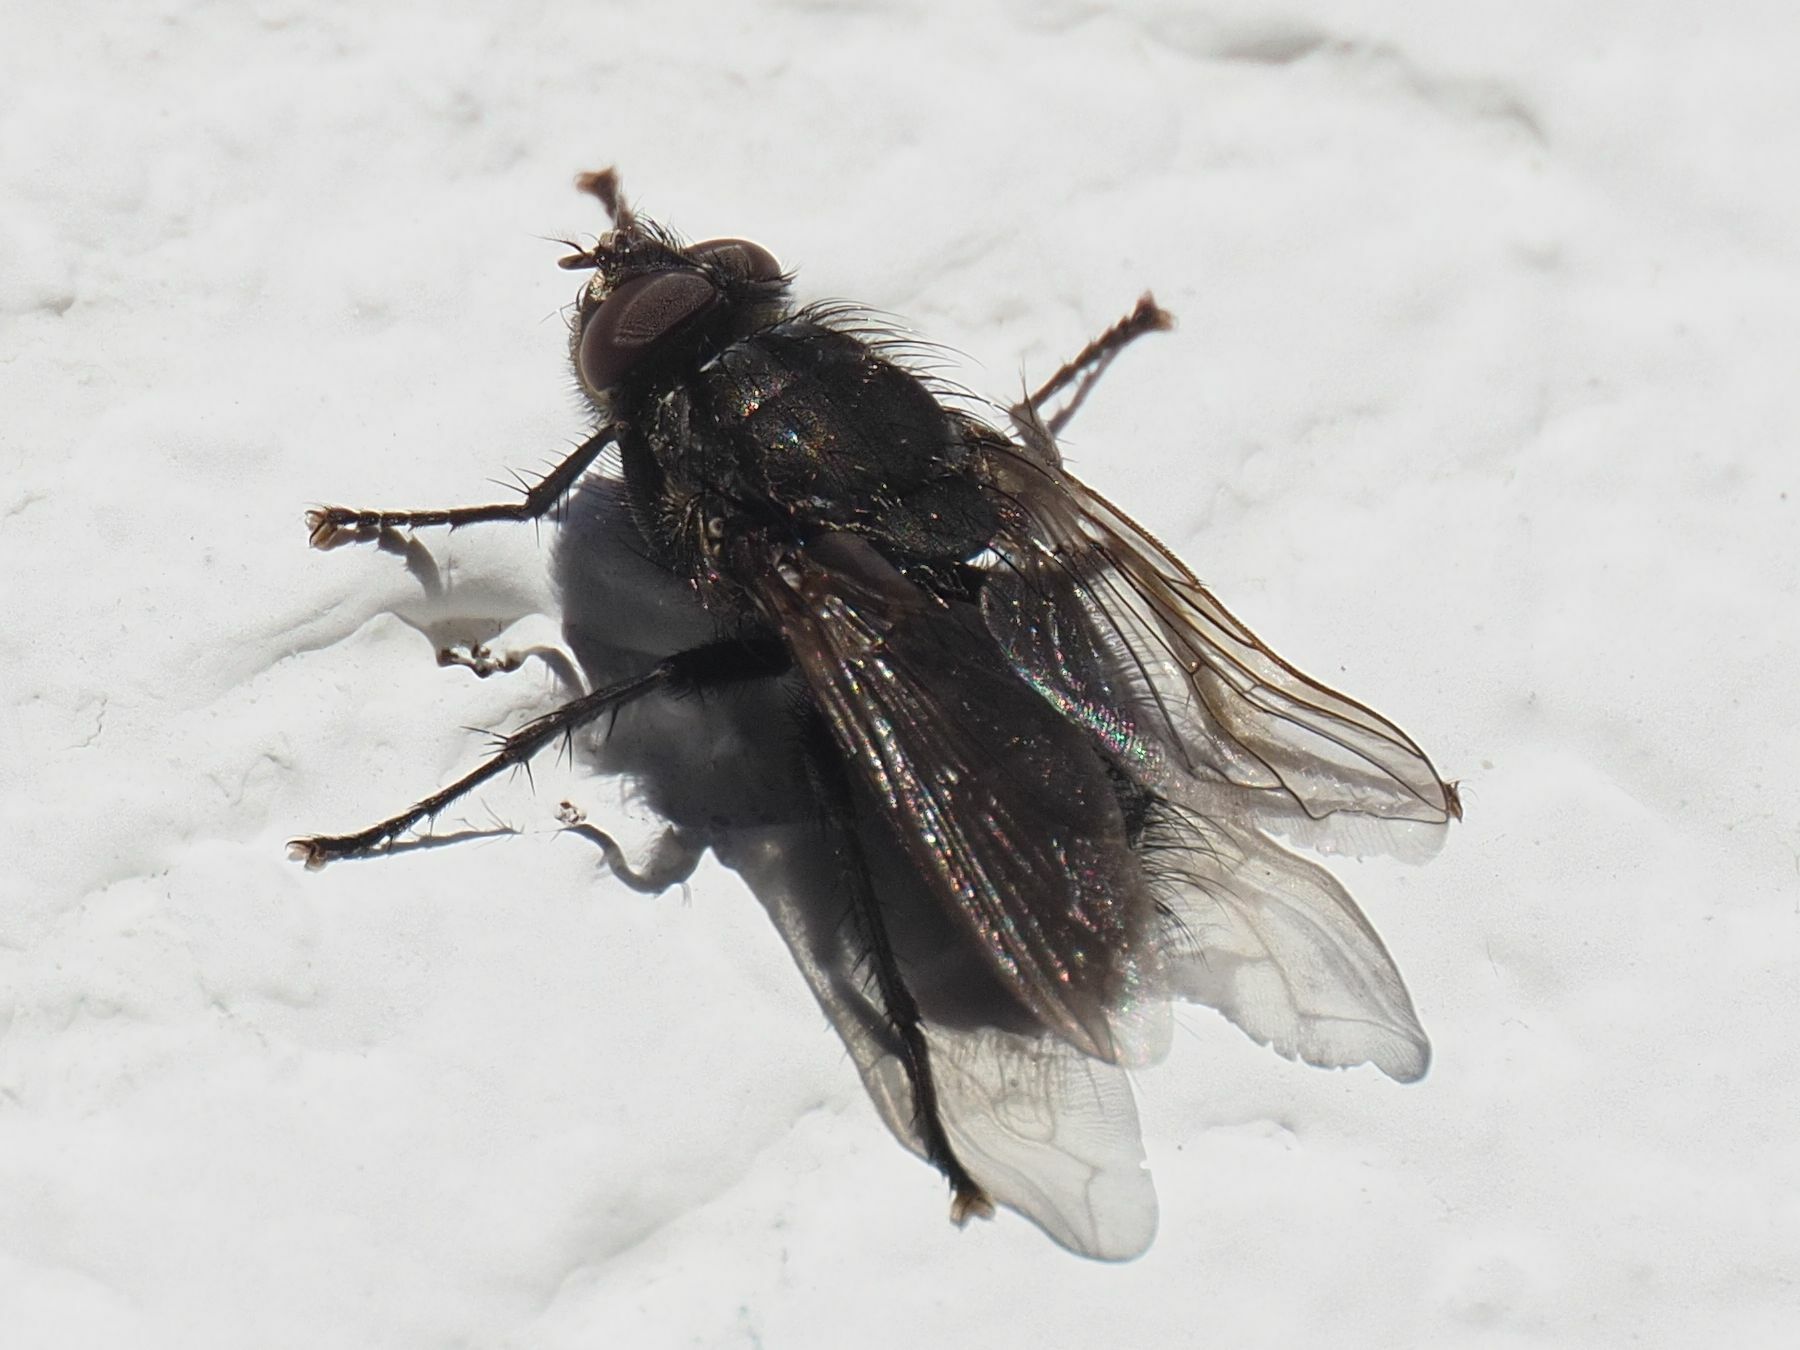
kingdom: Animalia
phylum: Arthropoda
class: Insecta
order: Diptera
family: Polleniidae
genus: Pollenia
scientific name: Pollenia vagabunda
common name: Vagabund cluster fly
